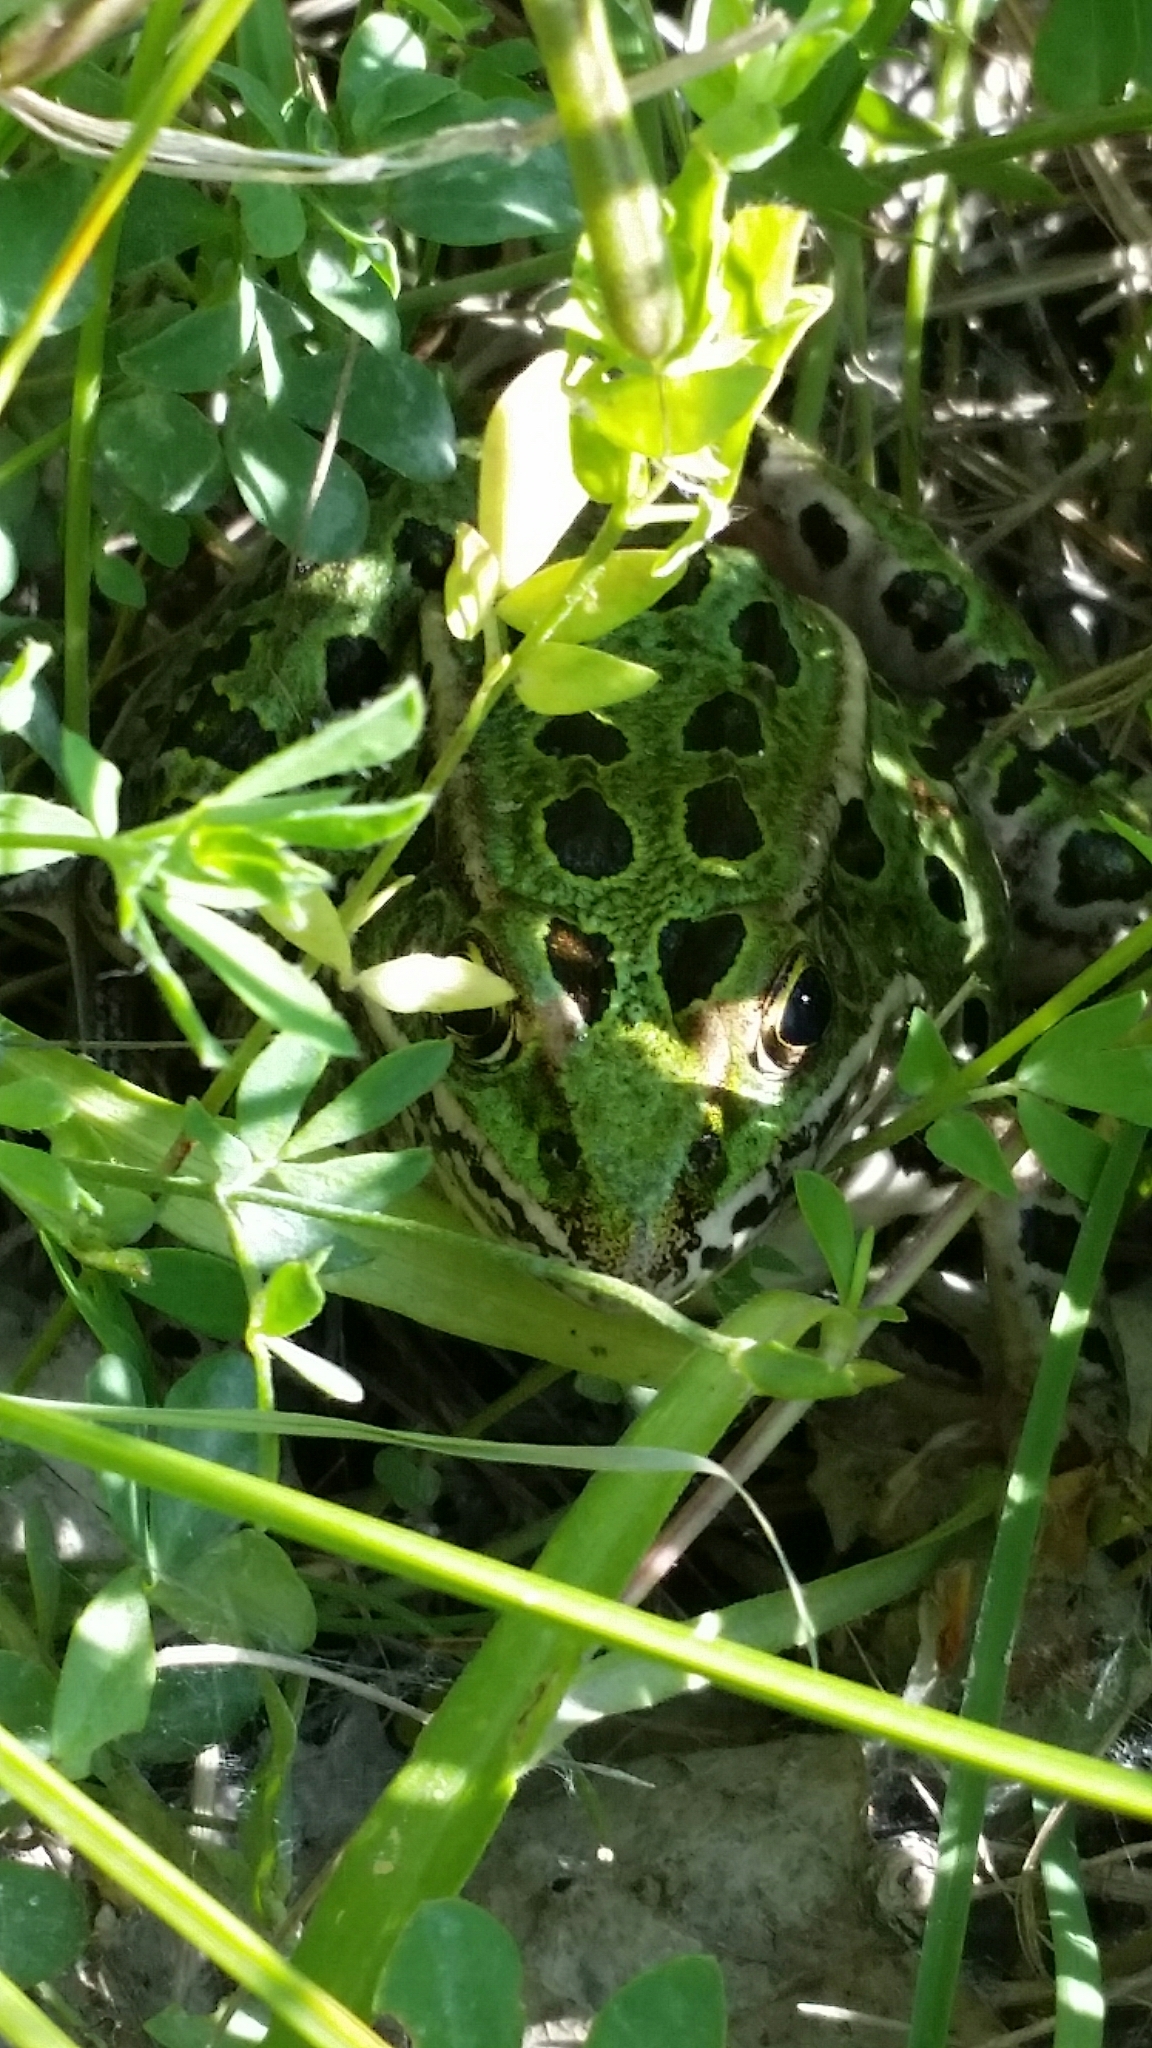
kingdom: Animalia
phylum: Chordata
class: Amphibia
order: Anura
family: Ranidae
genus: Lithobates
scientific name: Lithobates pipiens
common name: Northern leopard frog
